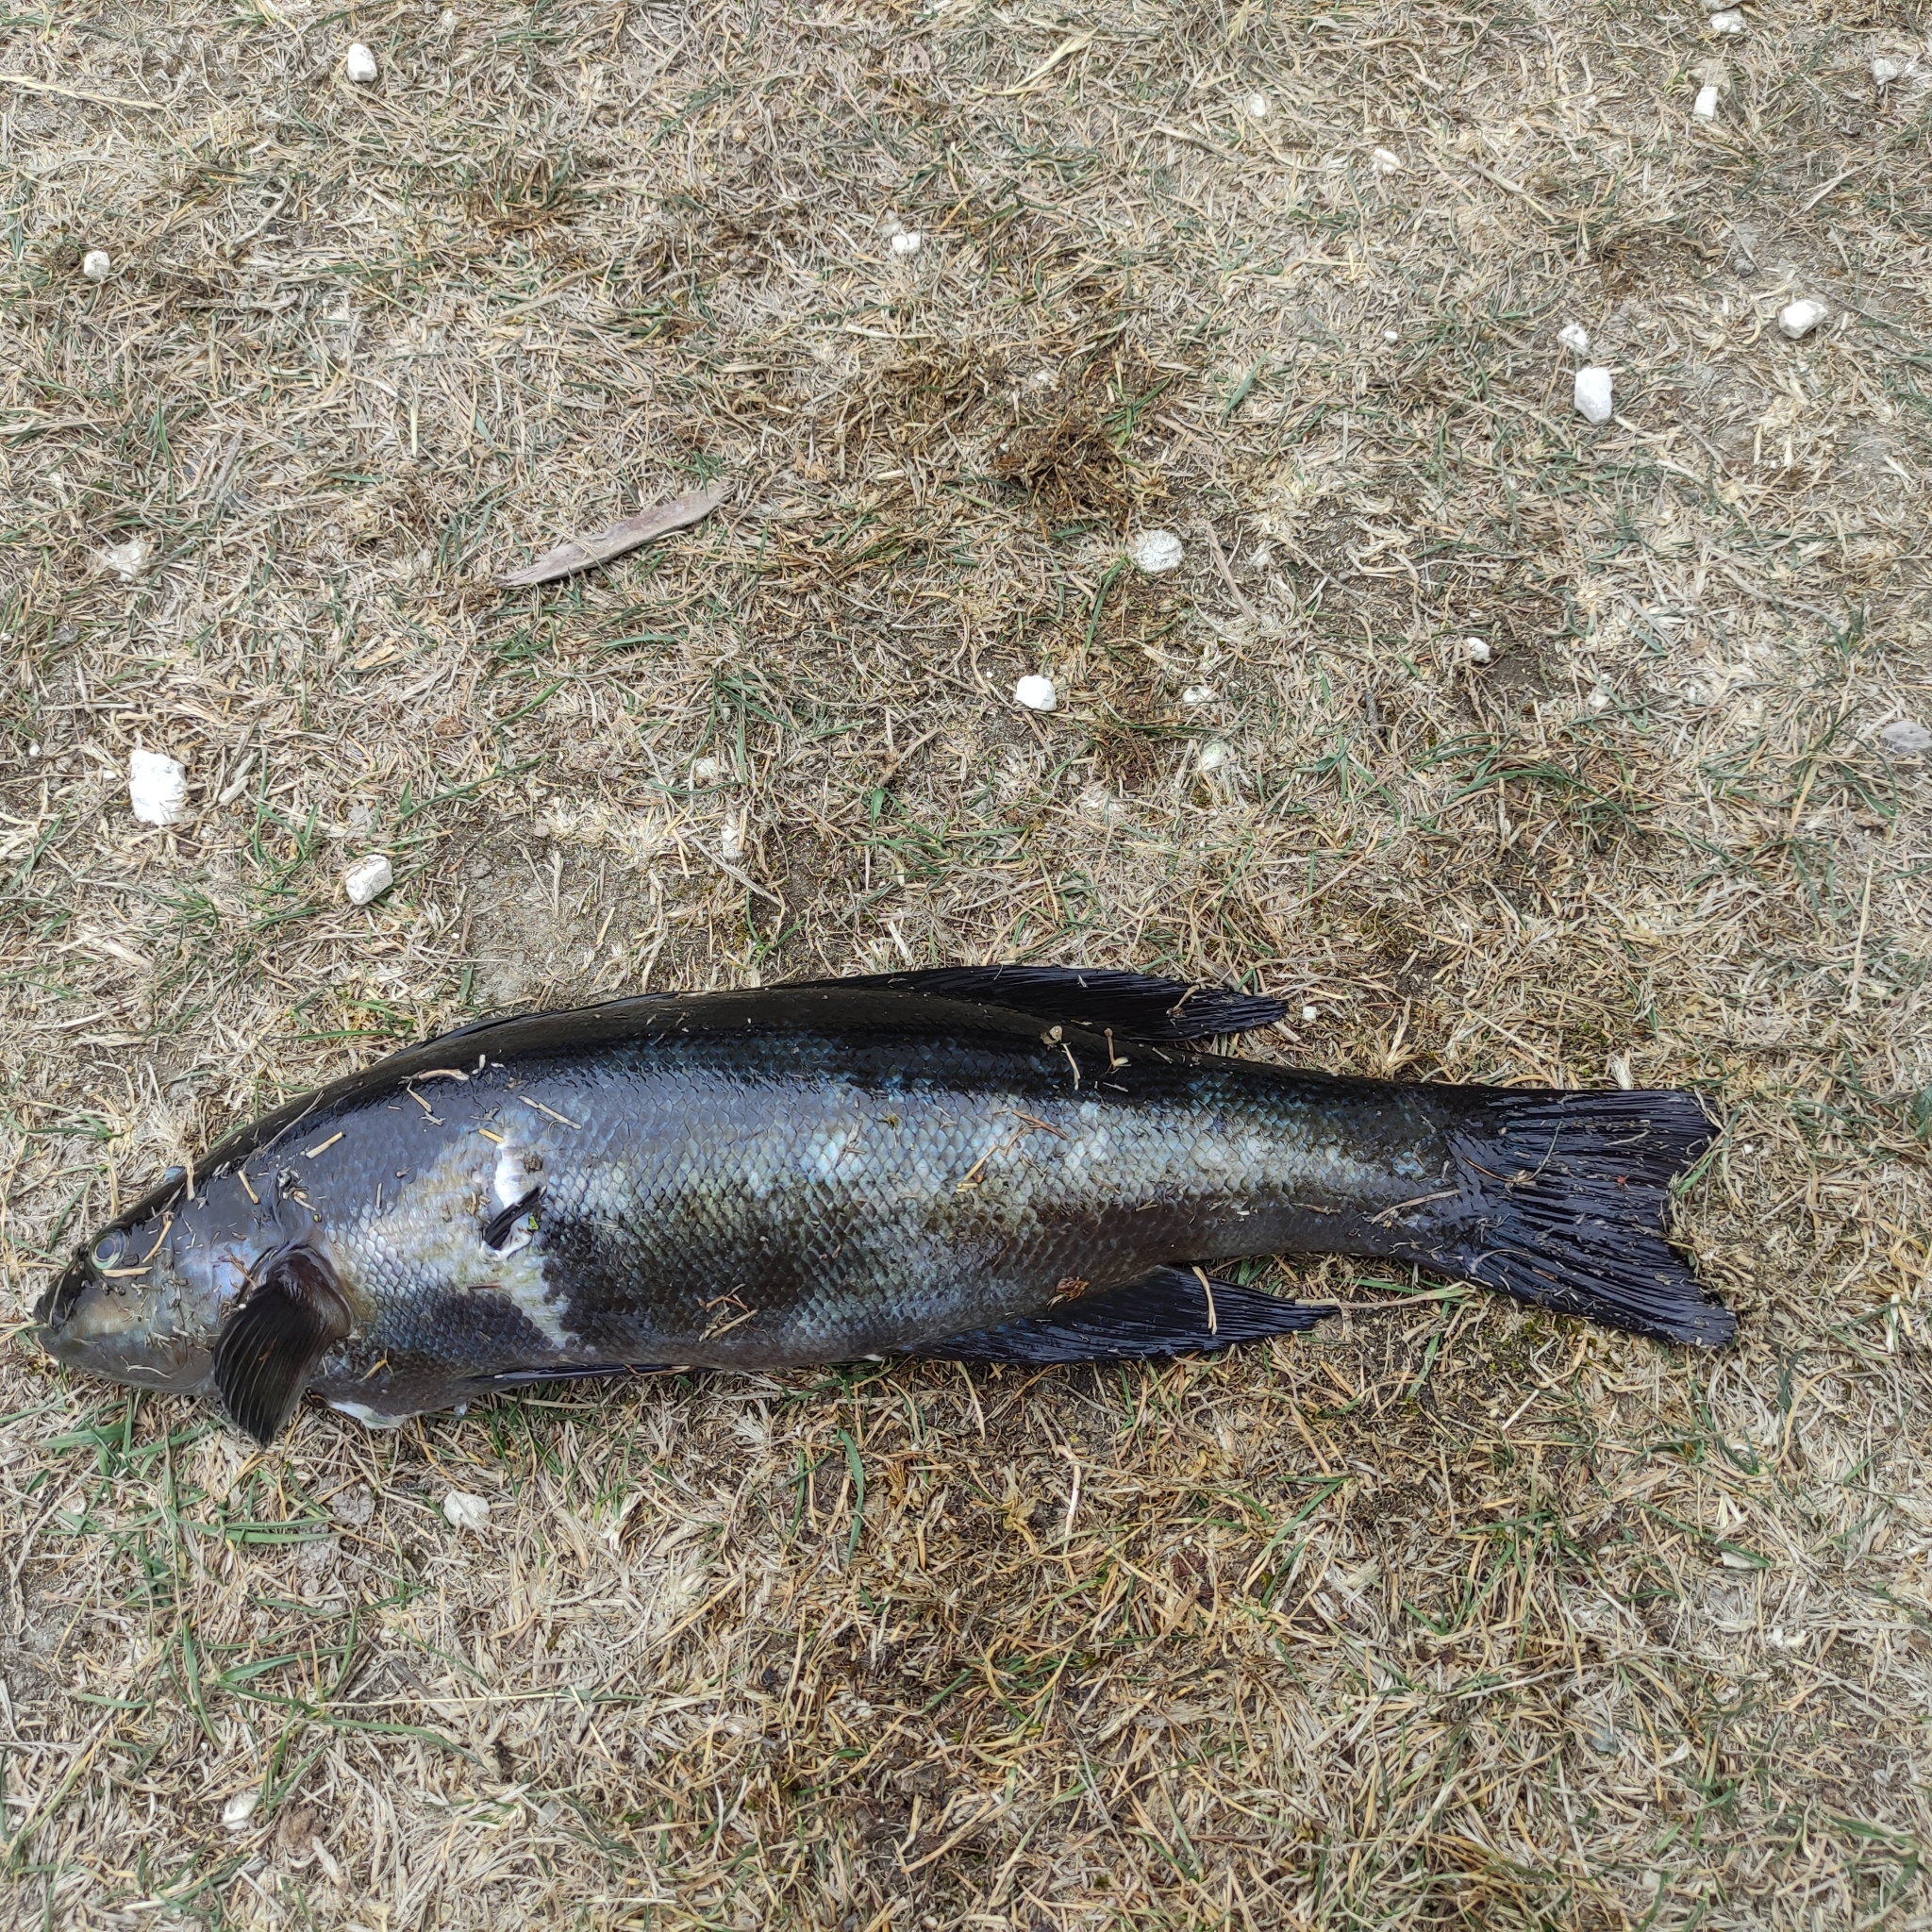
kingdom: Animalia
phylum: Chordata
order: Perciformes
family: Odacidae
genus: Odax
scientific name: Odax pullus
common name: Butterfish
